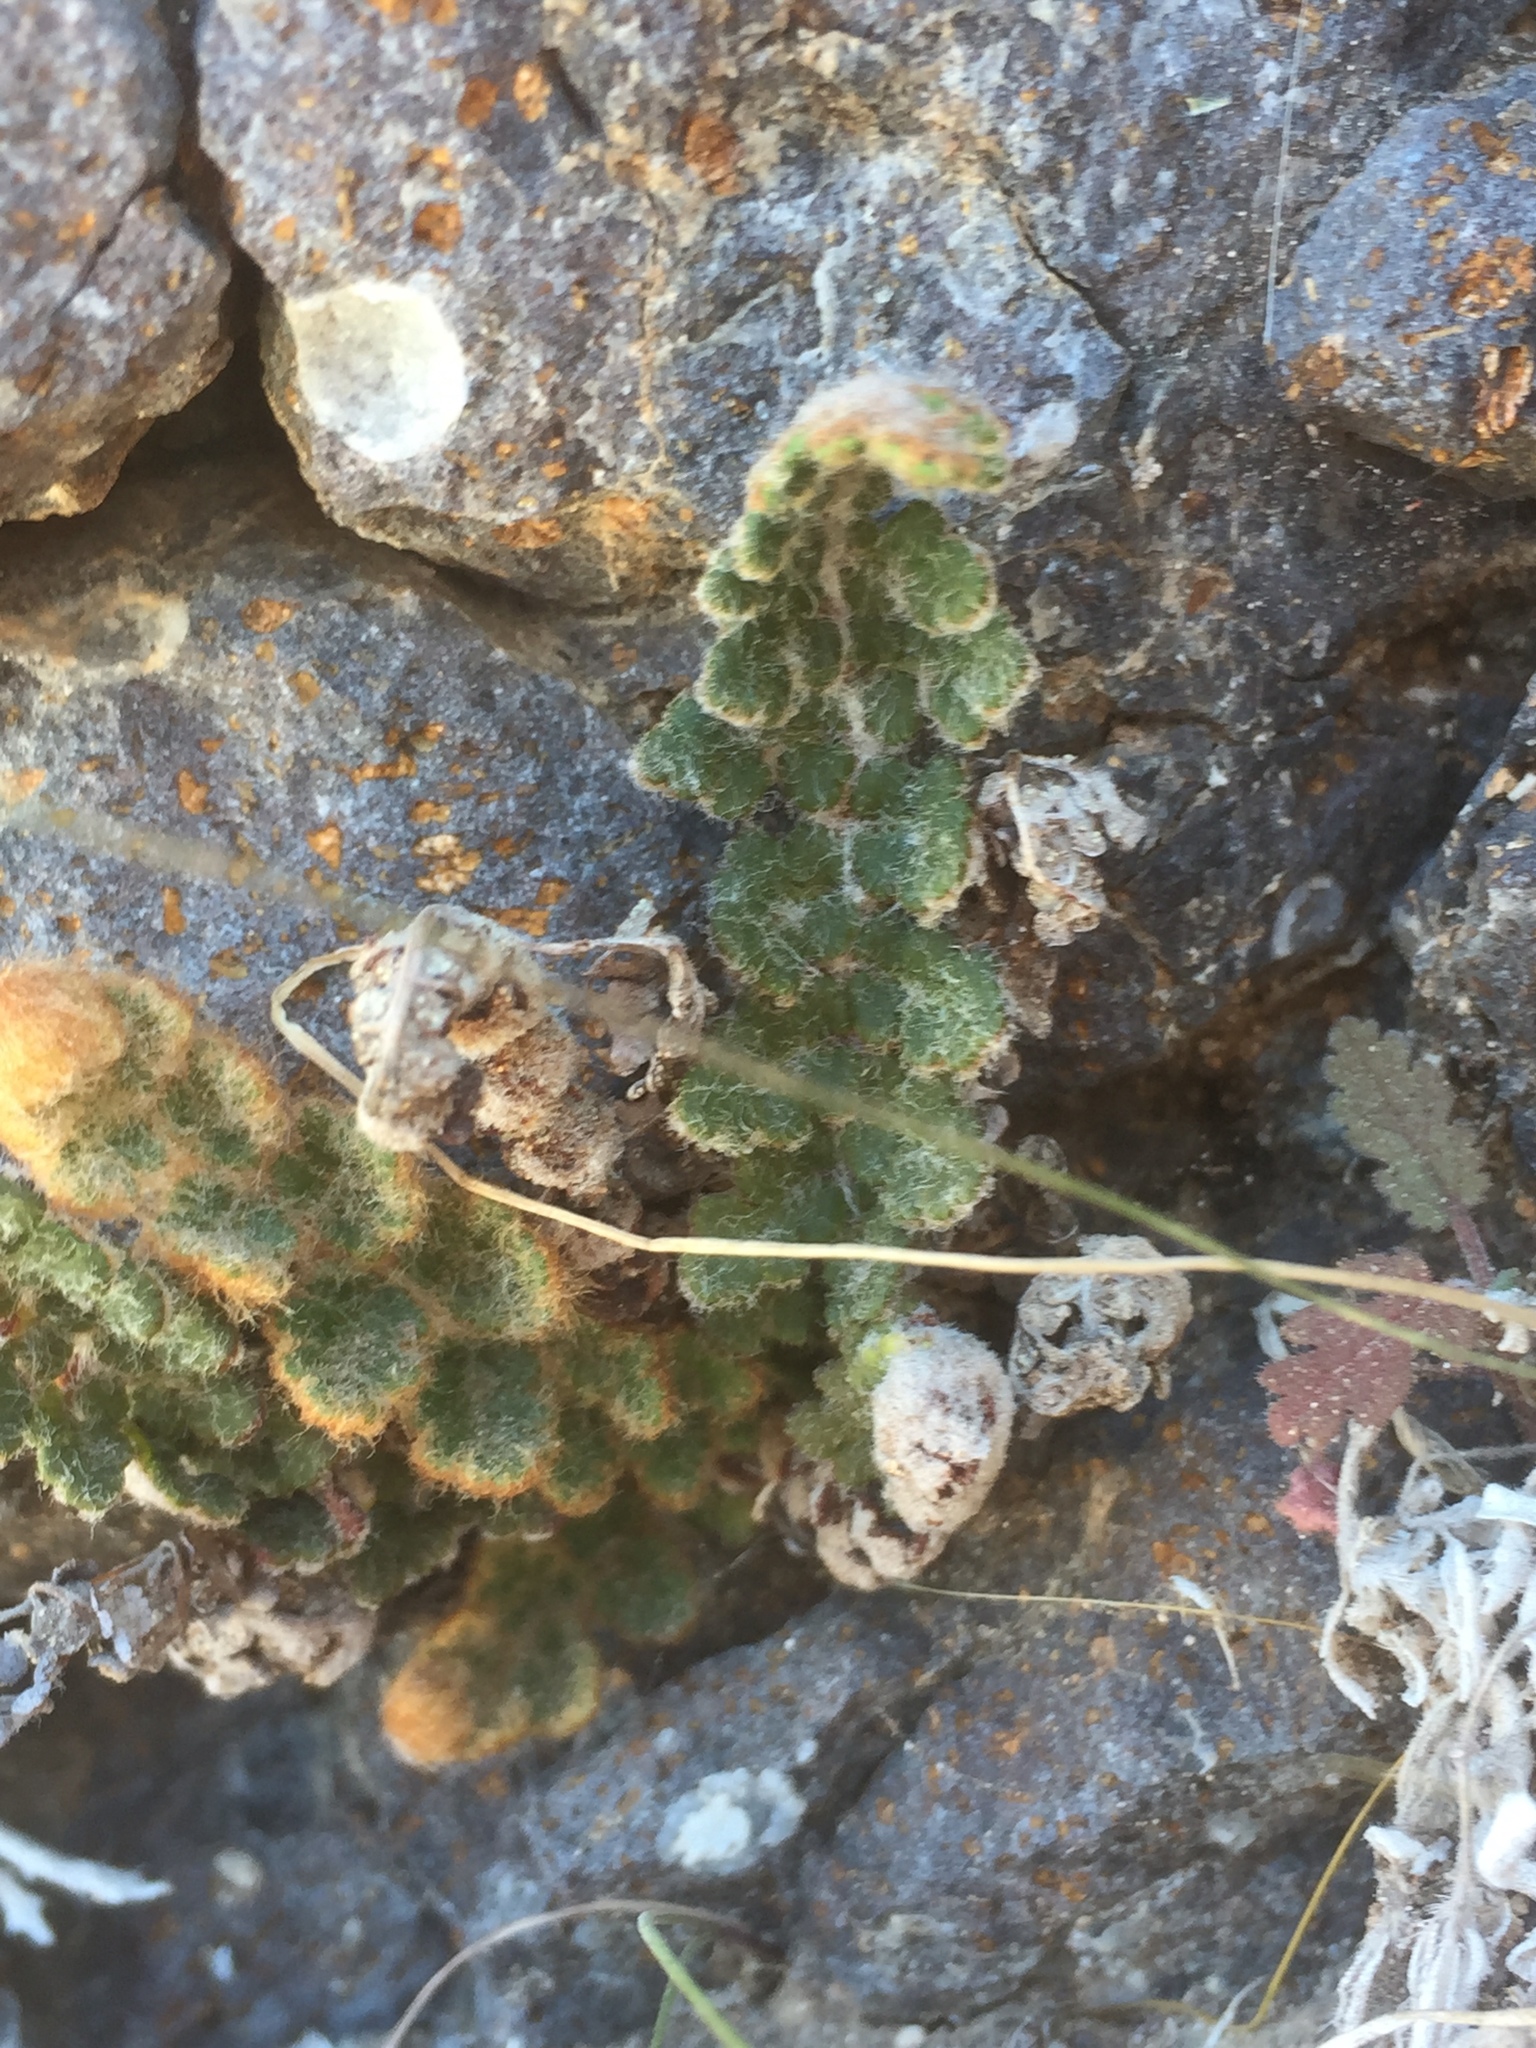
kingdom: Plantae
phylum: Tracheophyta
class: Polypodiopsida
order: Polypodiales
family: Pteridaceae
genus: Cosentinia
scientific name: Cosentinia vellea
